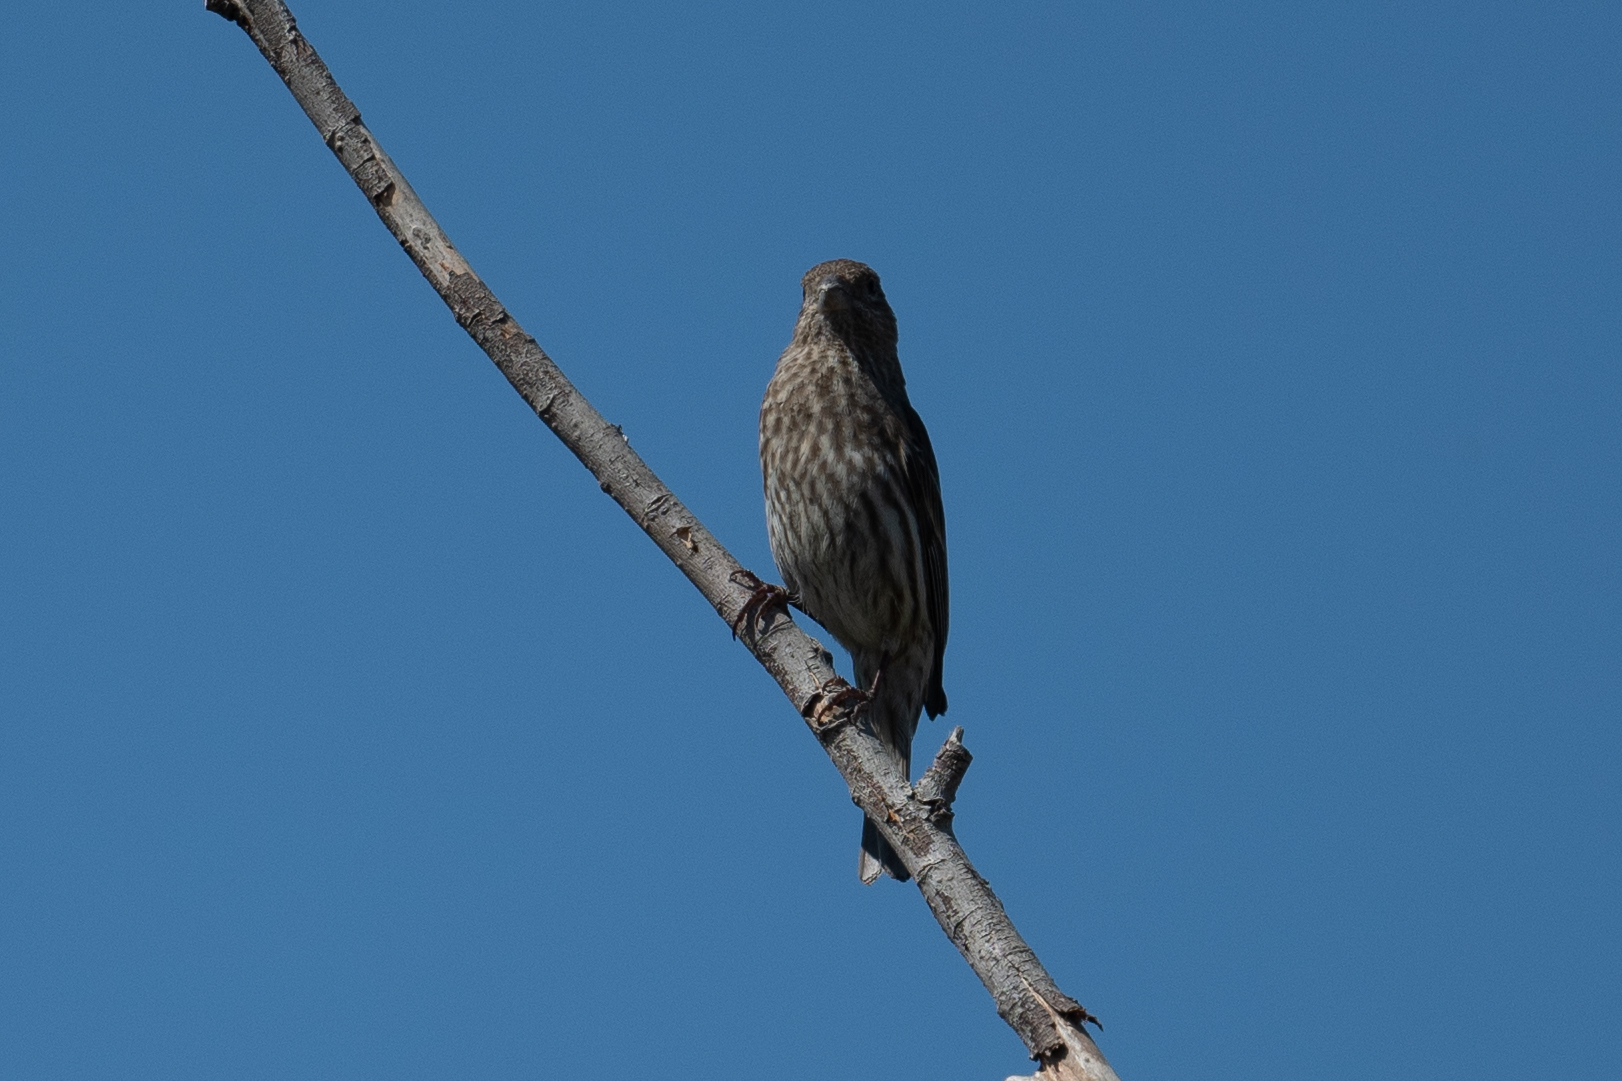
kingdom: Animalia
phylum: Chordata
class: Aves
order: Passeriformes
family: Fringillidae
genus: Haemorhous
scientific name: Haemorhous mexicanus
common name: House finch
